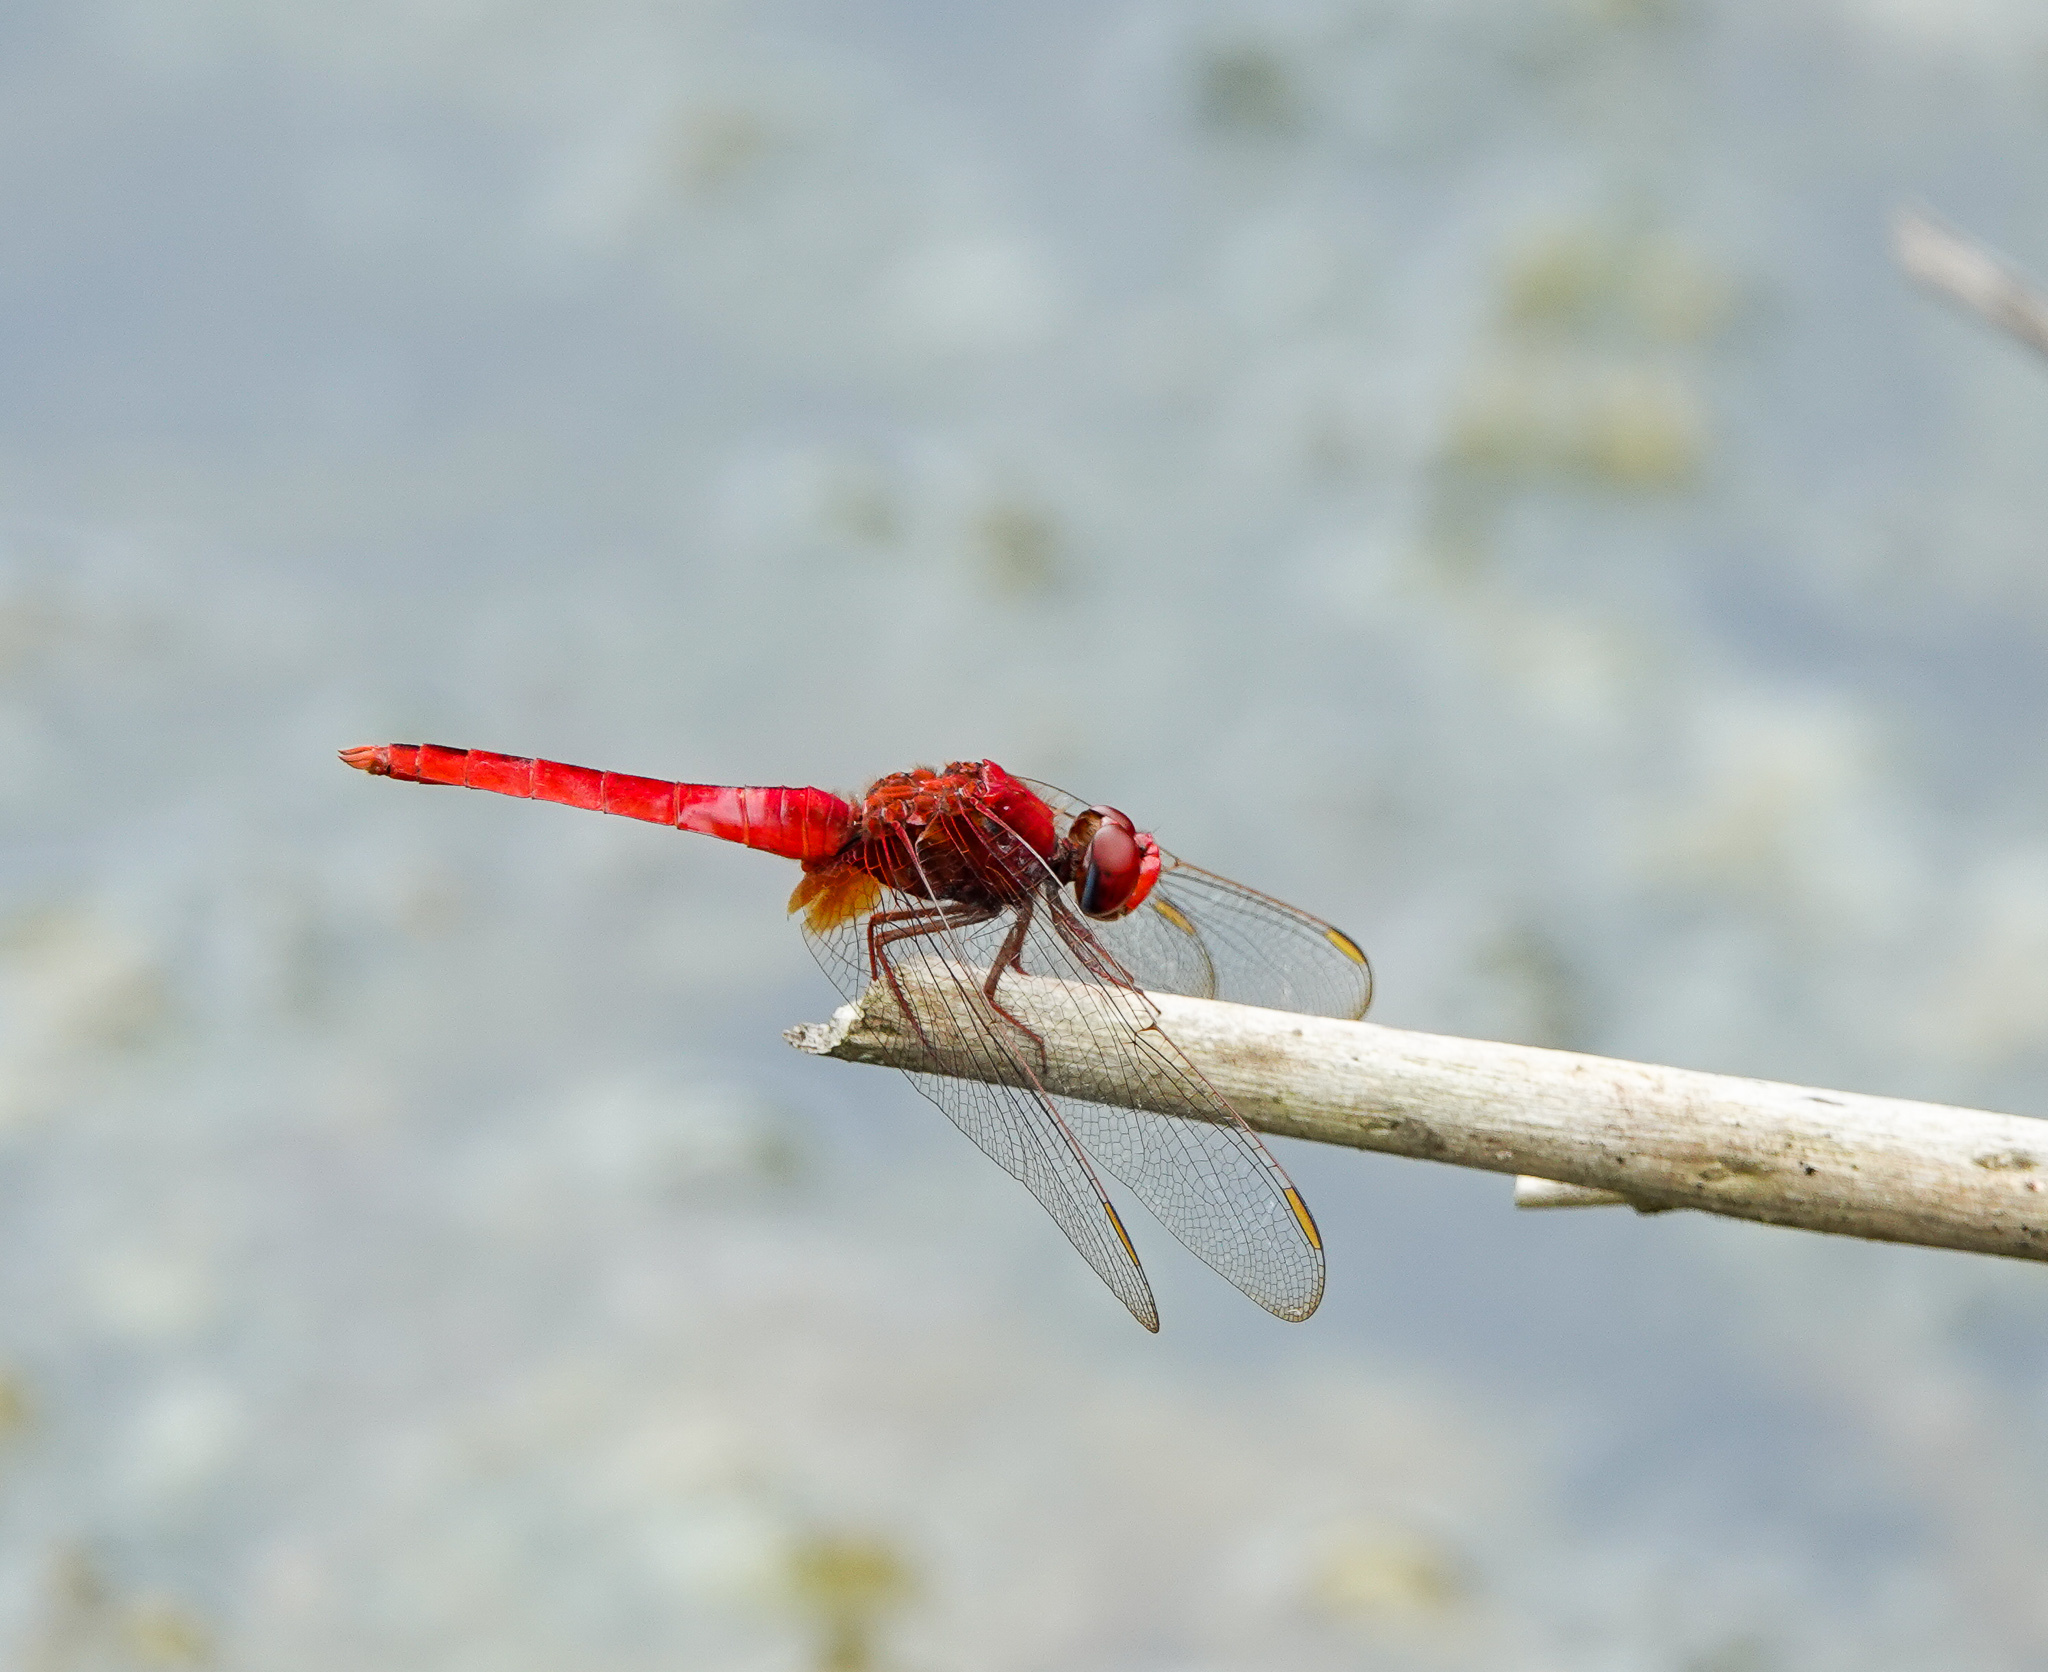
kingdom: Animalia
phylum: Arthropoda
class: Insecta
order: Odonata
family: Libellulidae
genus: Crocothemis
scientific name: Crocothemis servilia
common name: Scarlet skimmer
